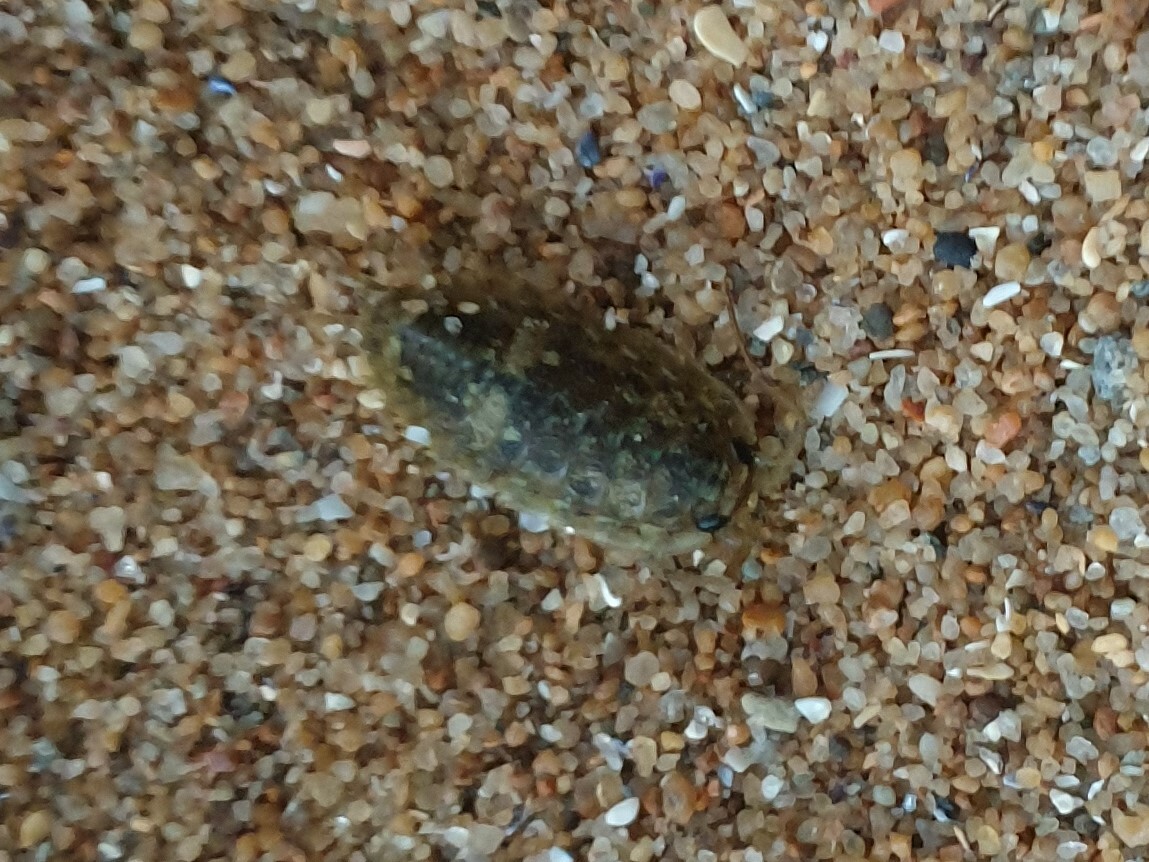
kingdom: Animalia
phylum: Arthropoda
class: Malacostraca
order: Isopoda
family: Ligiidae
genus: Ligia
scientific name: Ligia oceanica
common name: Sea slater
